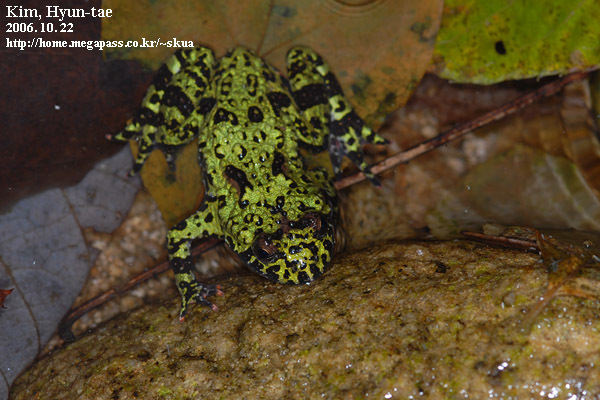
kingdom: Animalia
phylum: Chordata
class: Amphibia
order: Anura
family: Bombinatoridae
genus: Bombina
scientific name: Bombina orientalis
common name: Oriental firebelly toad
